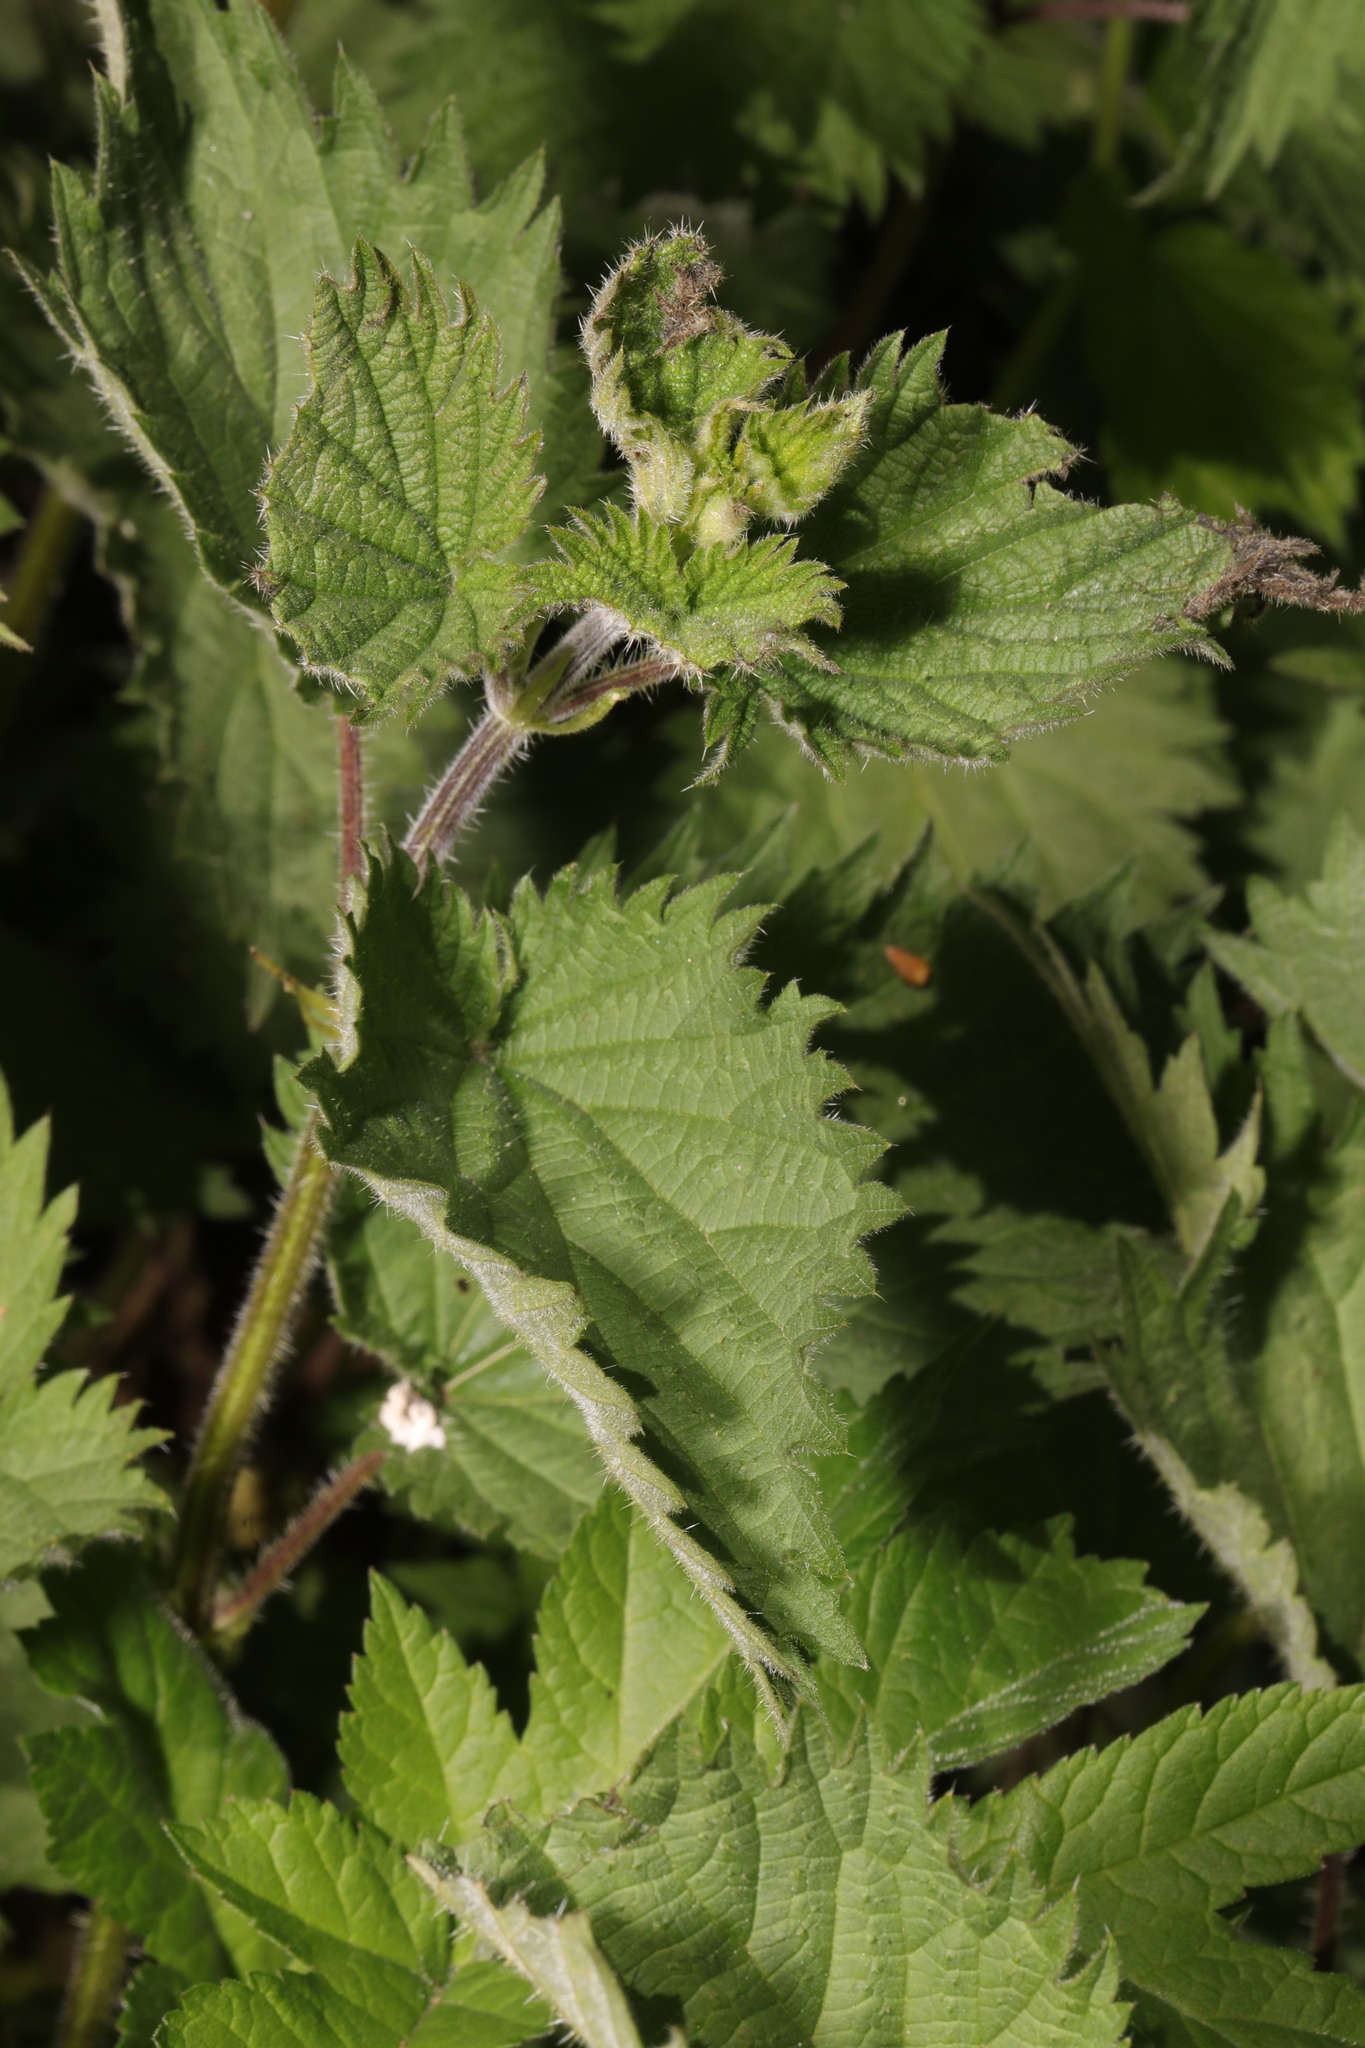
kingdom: Plantae
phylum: Tracheophyta
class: Magnoliopsida
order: Rosales
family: Urticaceae
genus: Urtica
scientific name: Urtica dioica
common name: Common nettle
